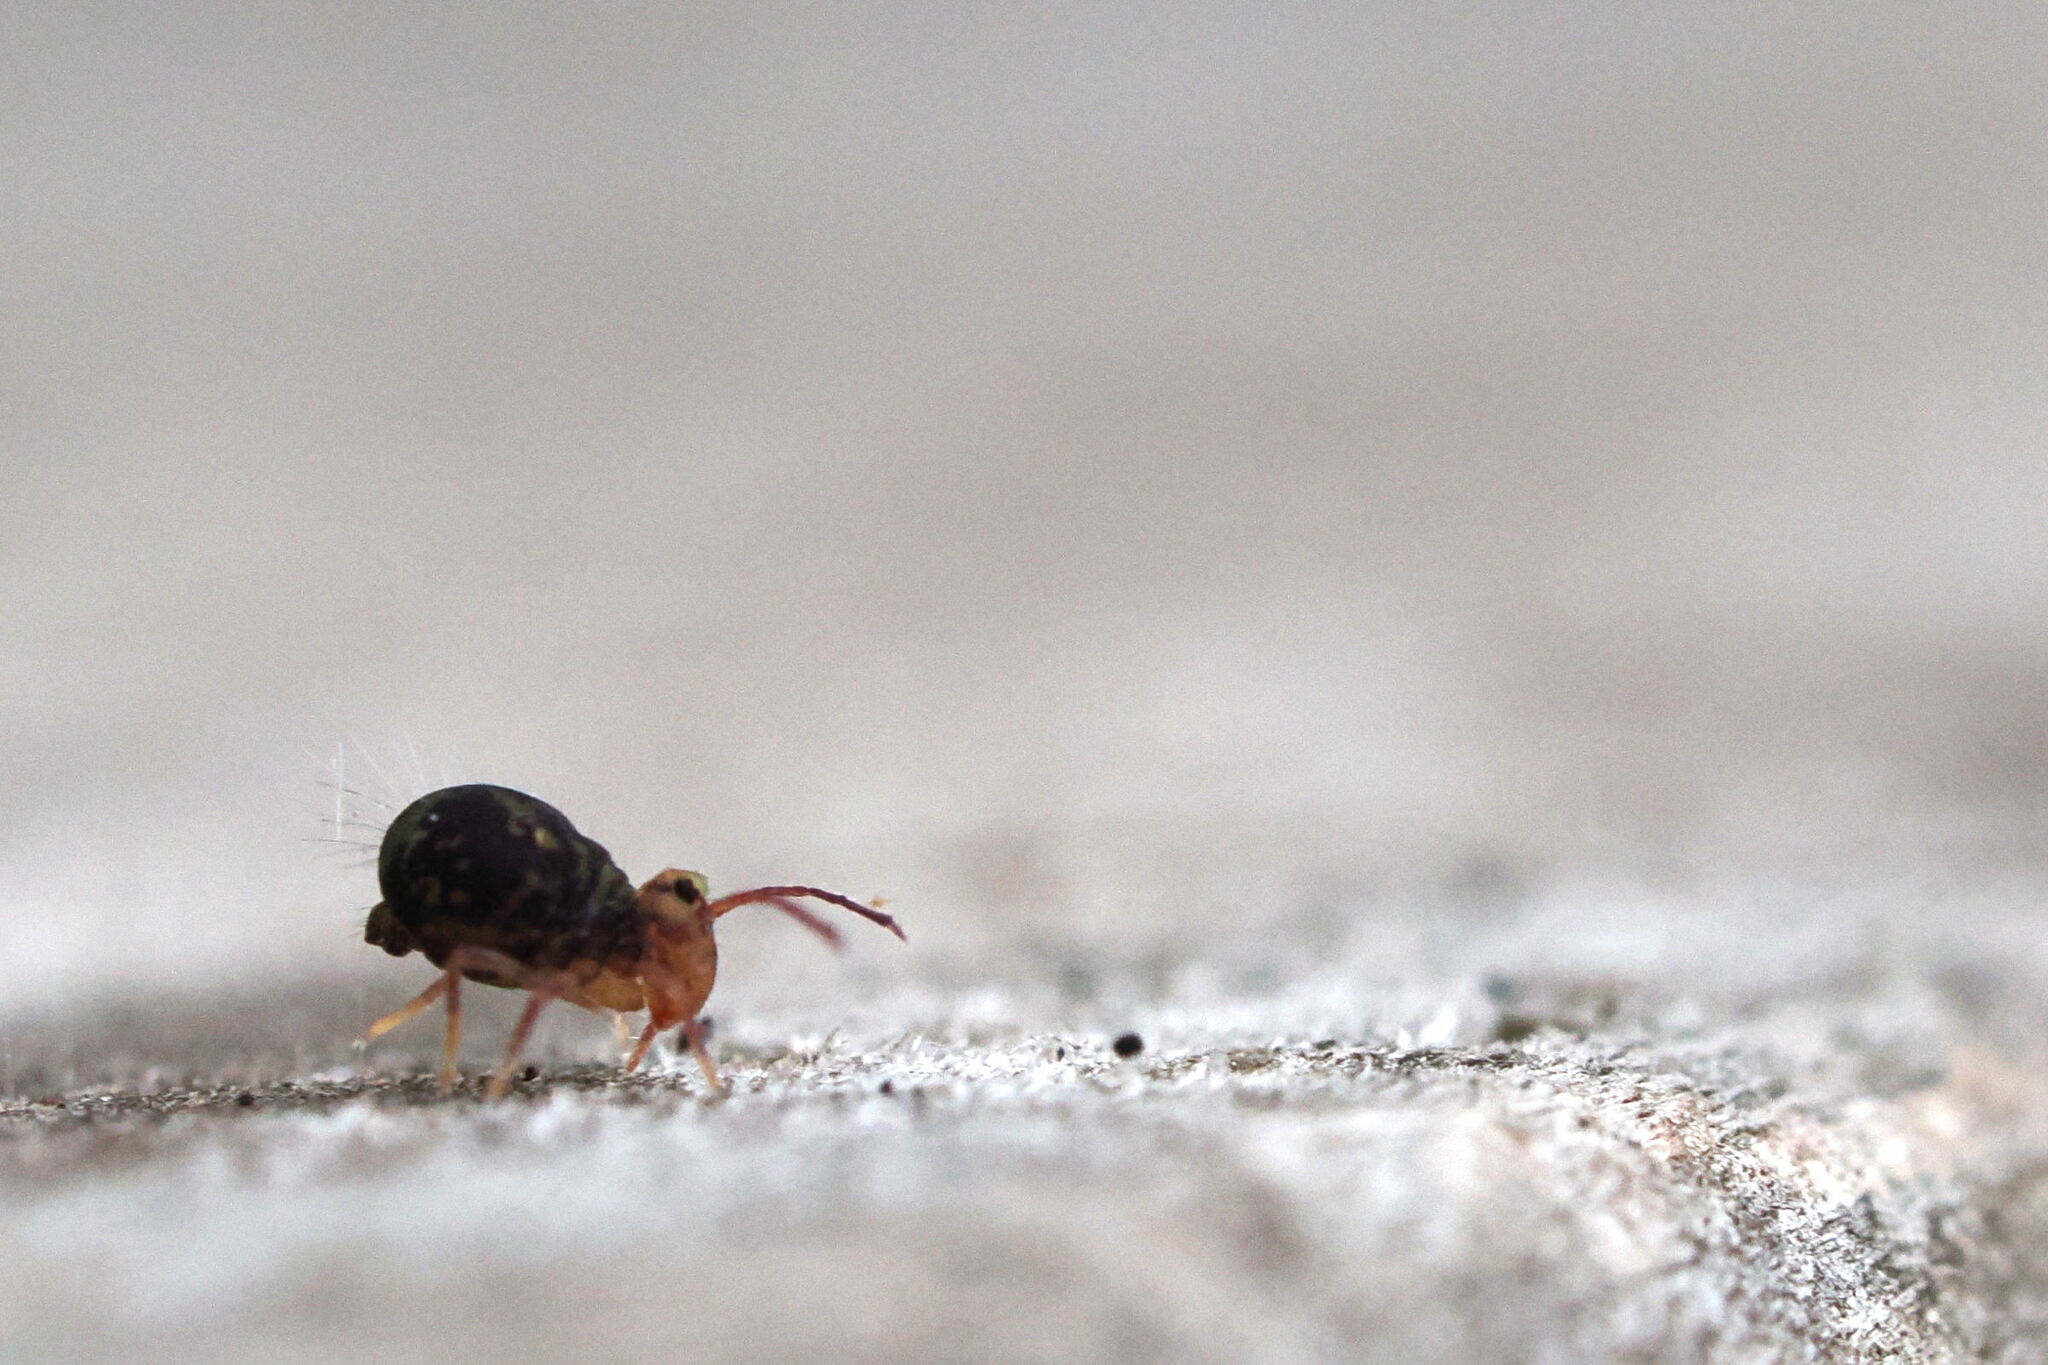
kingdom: Animalia
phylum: Arthropoda
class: Collembola
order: Symphypleona
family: Dicyrtomidae
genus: Dicyrtomina
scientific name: Dicyrtomina minuta
